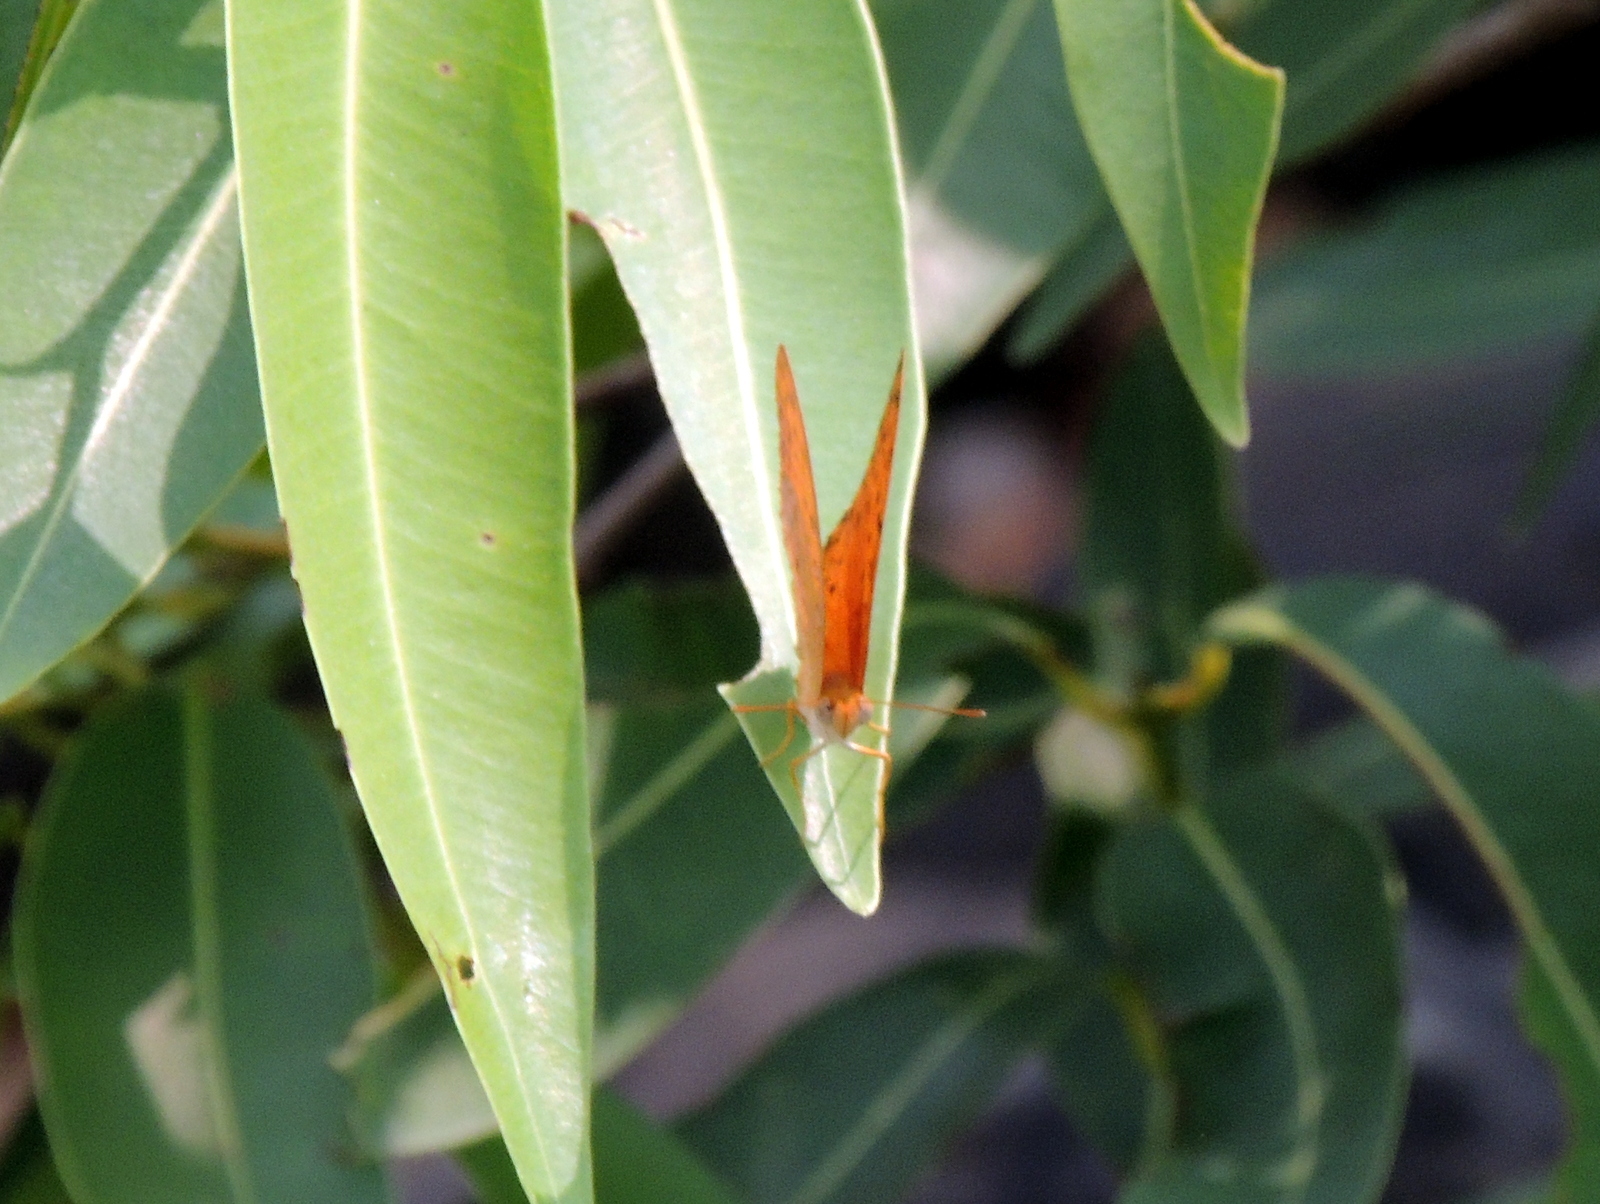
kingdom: Animalia
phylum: Arthropoda
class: Insecta
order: Lepidoptera
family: Nymphalidae
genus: Phalanta
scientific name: Phalanta phalantha
